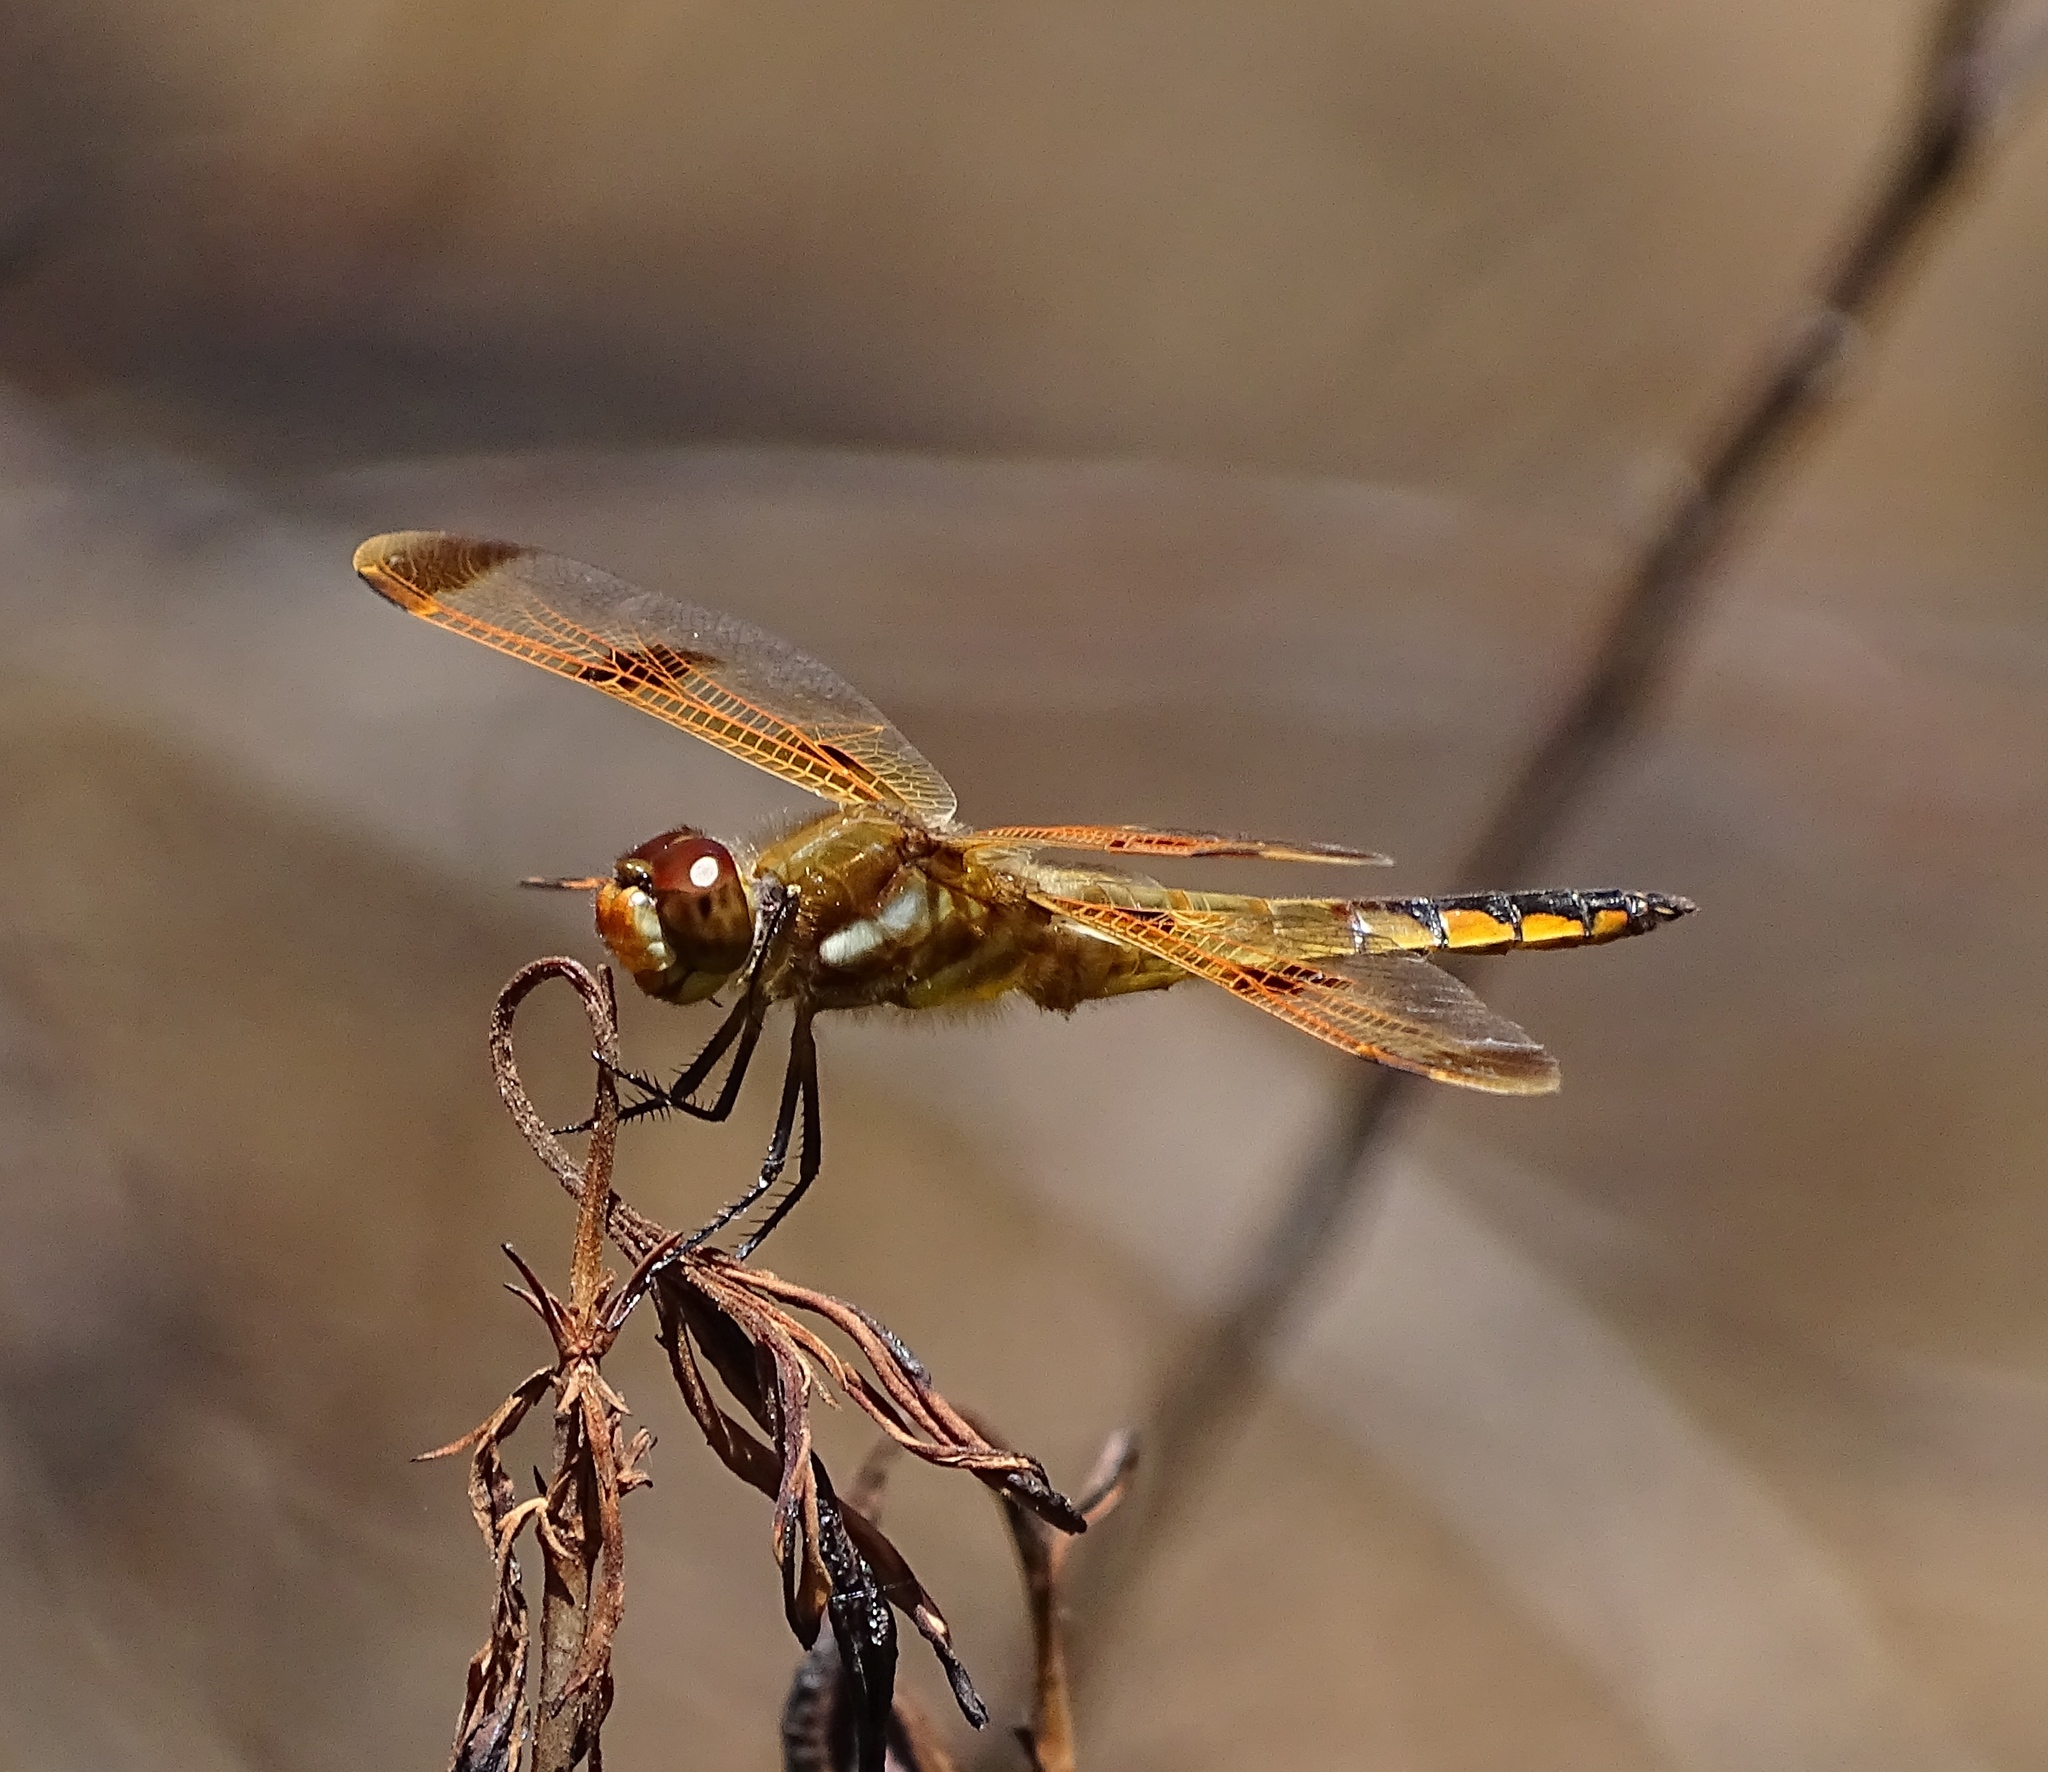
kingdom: Animalia
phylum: Arthropoda
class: Insecta
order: Odonata
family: Libellulidae
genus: Libellula
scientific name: Libellula semifasciata
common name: Painted skimmer
